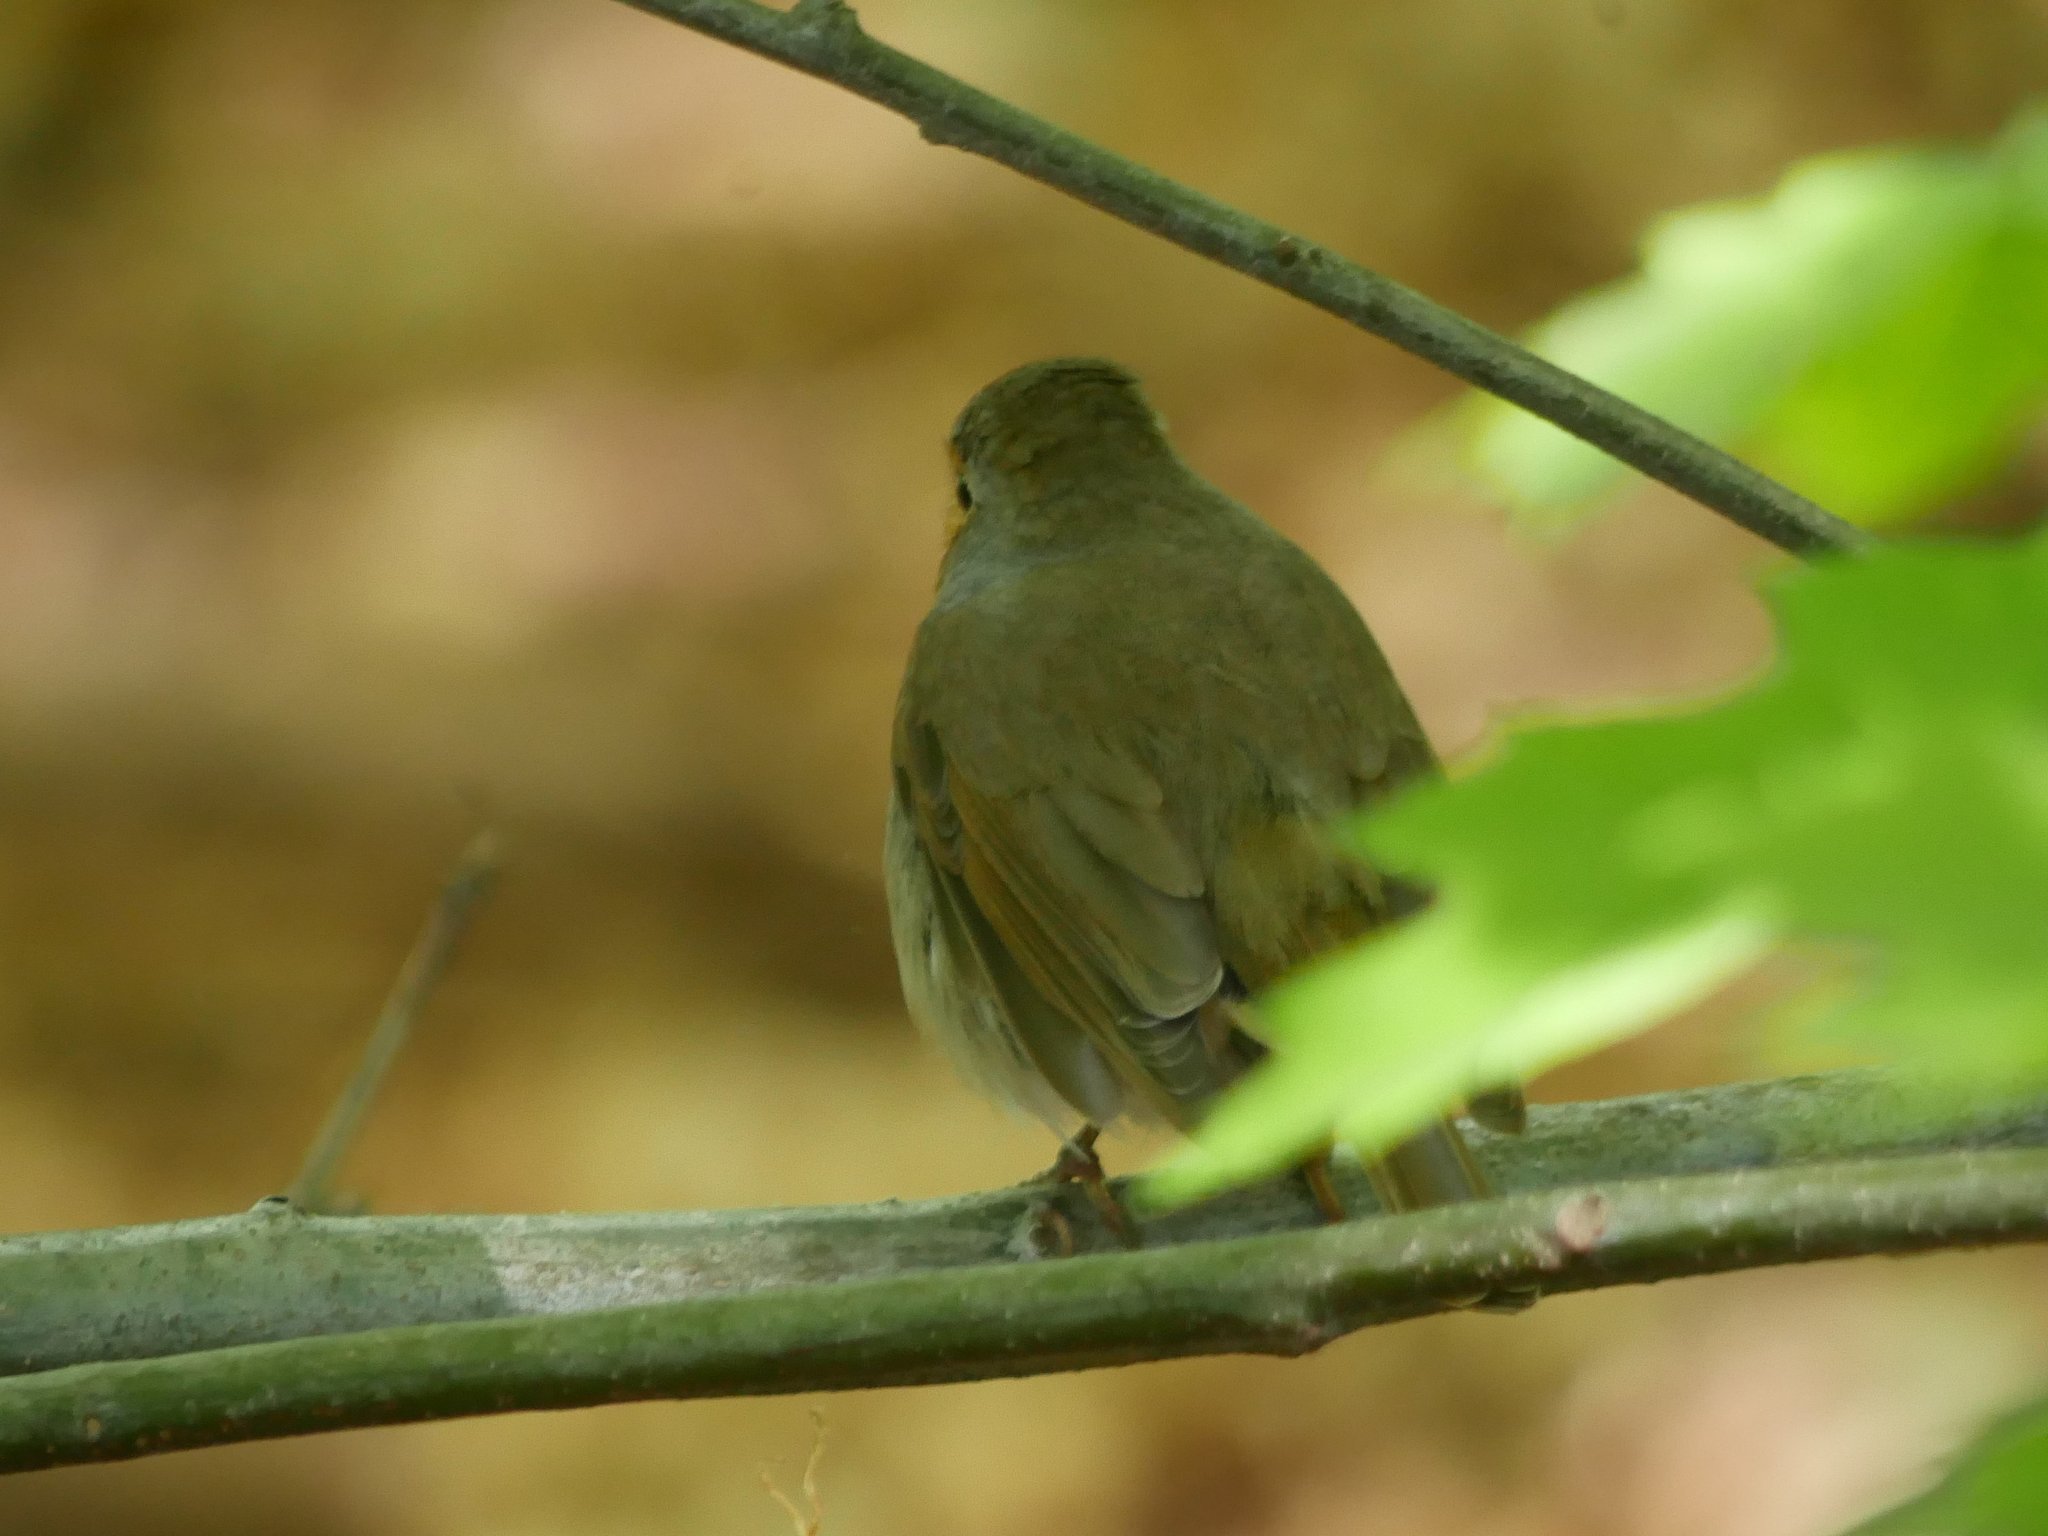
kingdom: Animalia
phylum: Chordata
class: Aves
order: Passeriformes
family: Muscicapidae
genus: Erithacus
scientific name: Erithacus rubecula
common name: European robin
